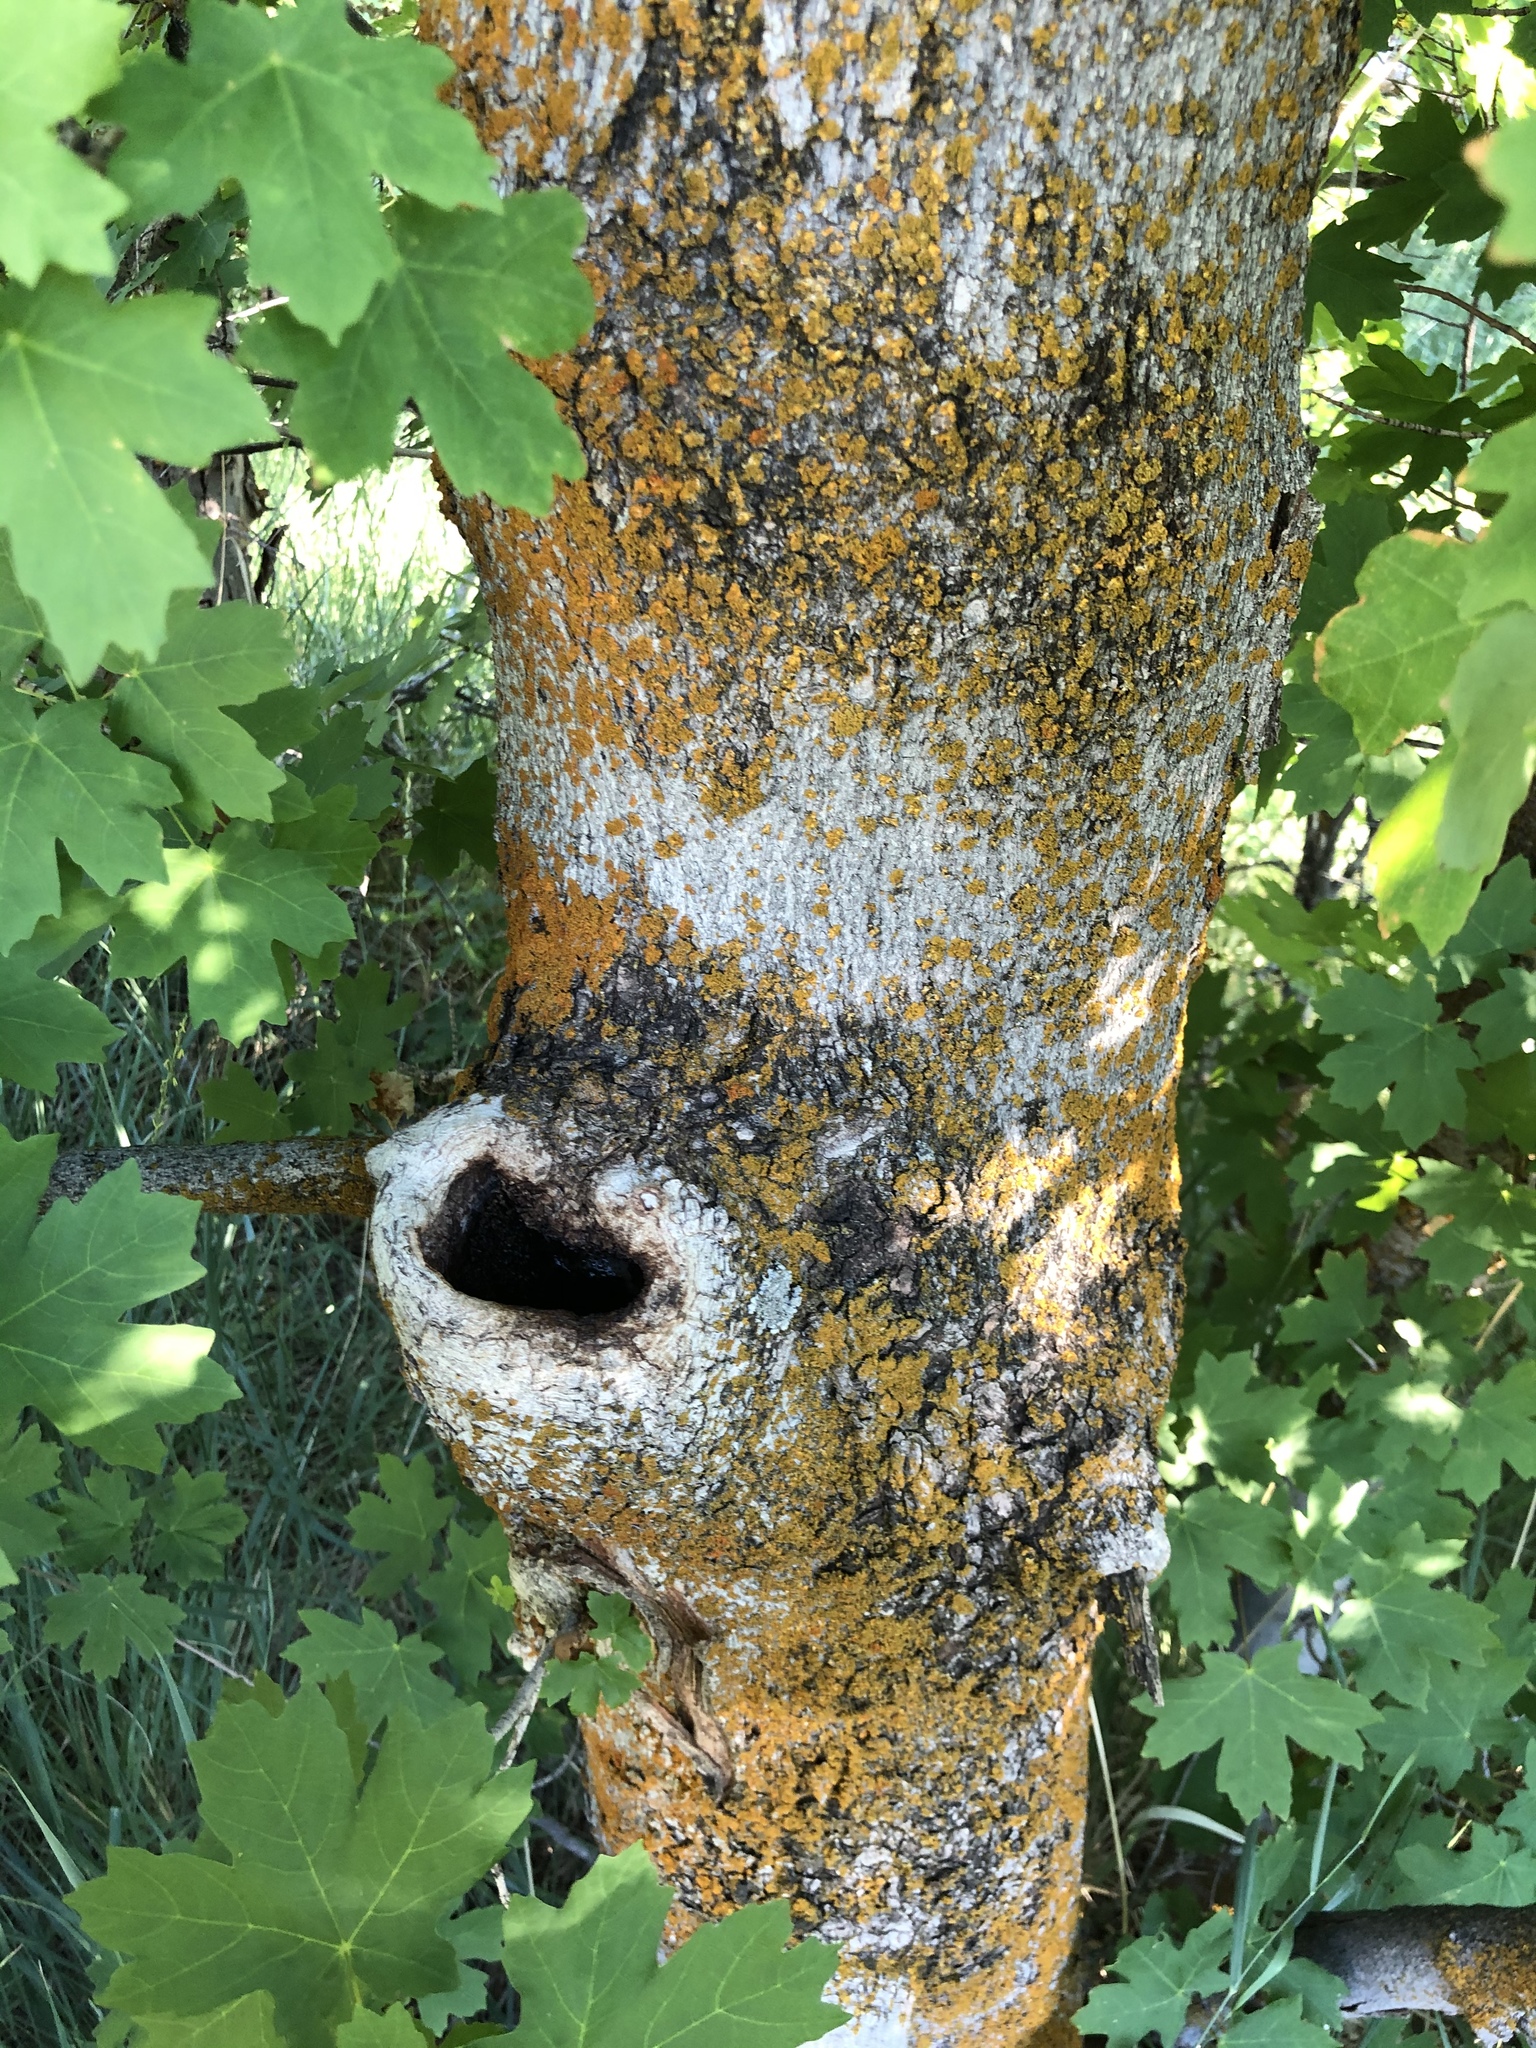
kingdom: Plantae
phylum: Tracheophyta
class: Magnoliopsida
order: Sapindales
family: Sapindaceae
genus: Acer
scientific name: Acer grandidentatum
